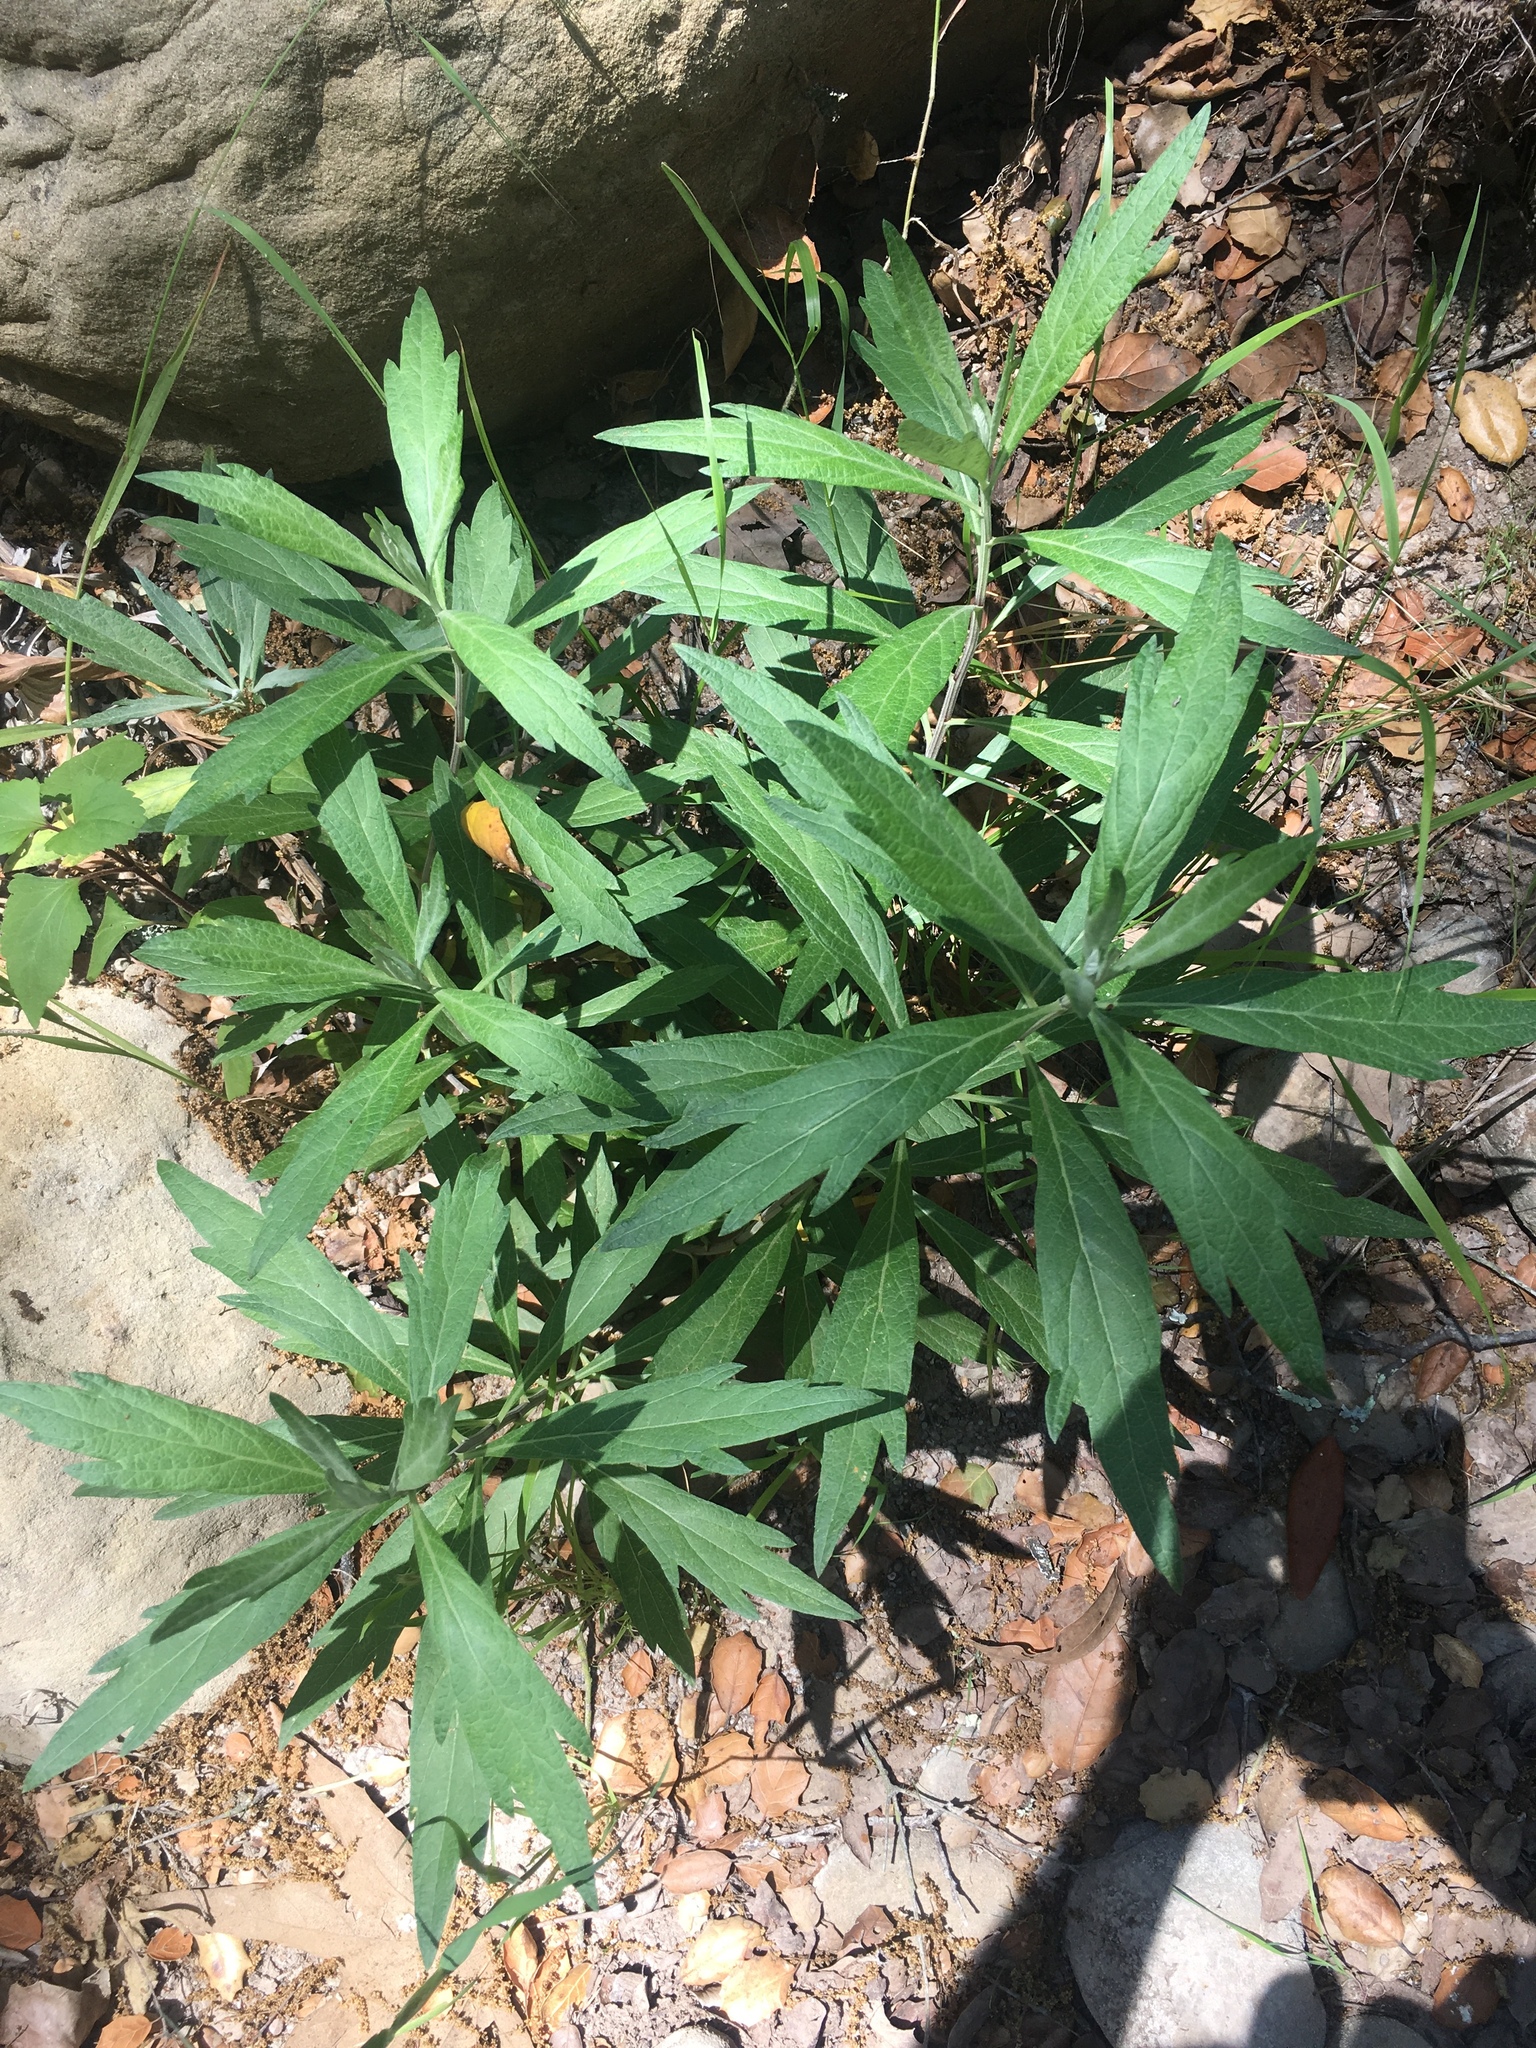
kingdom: Plantae
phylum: Tracheophyta
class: Magnoliopsida
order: Asterales
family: Asteraceae
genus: Artemisia
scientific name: Artemisia douglasiana
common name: Northwest mugwort
